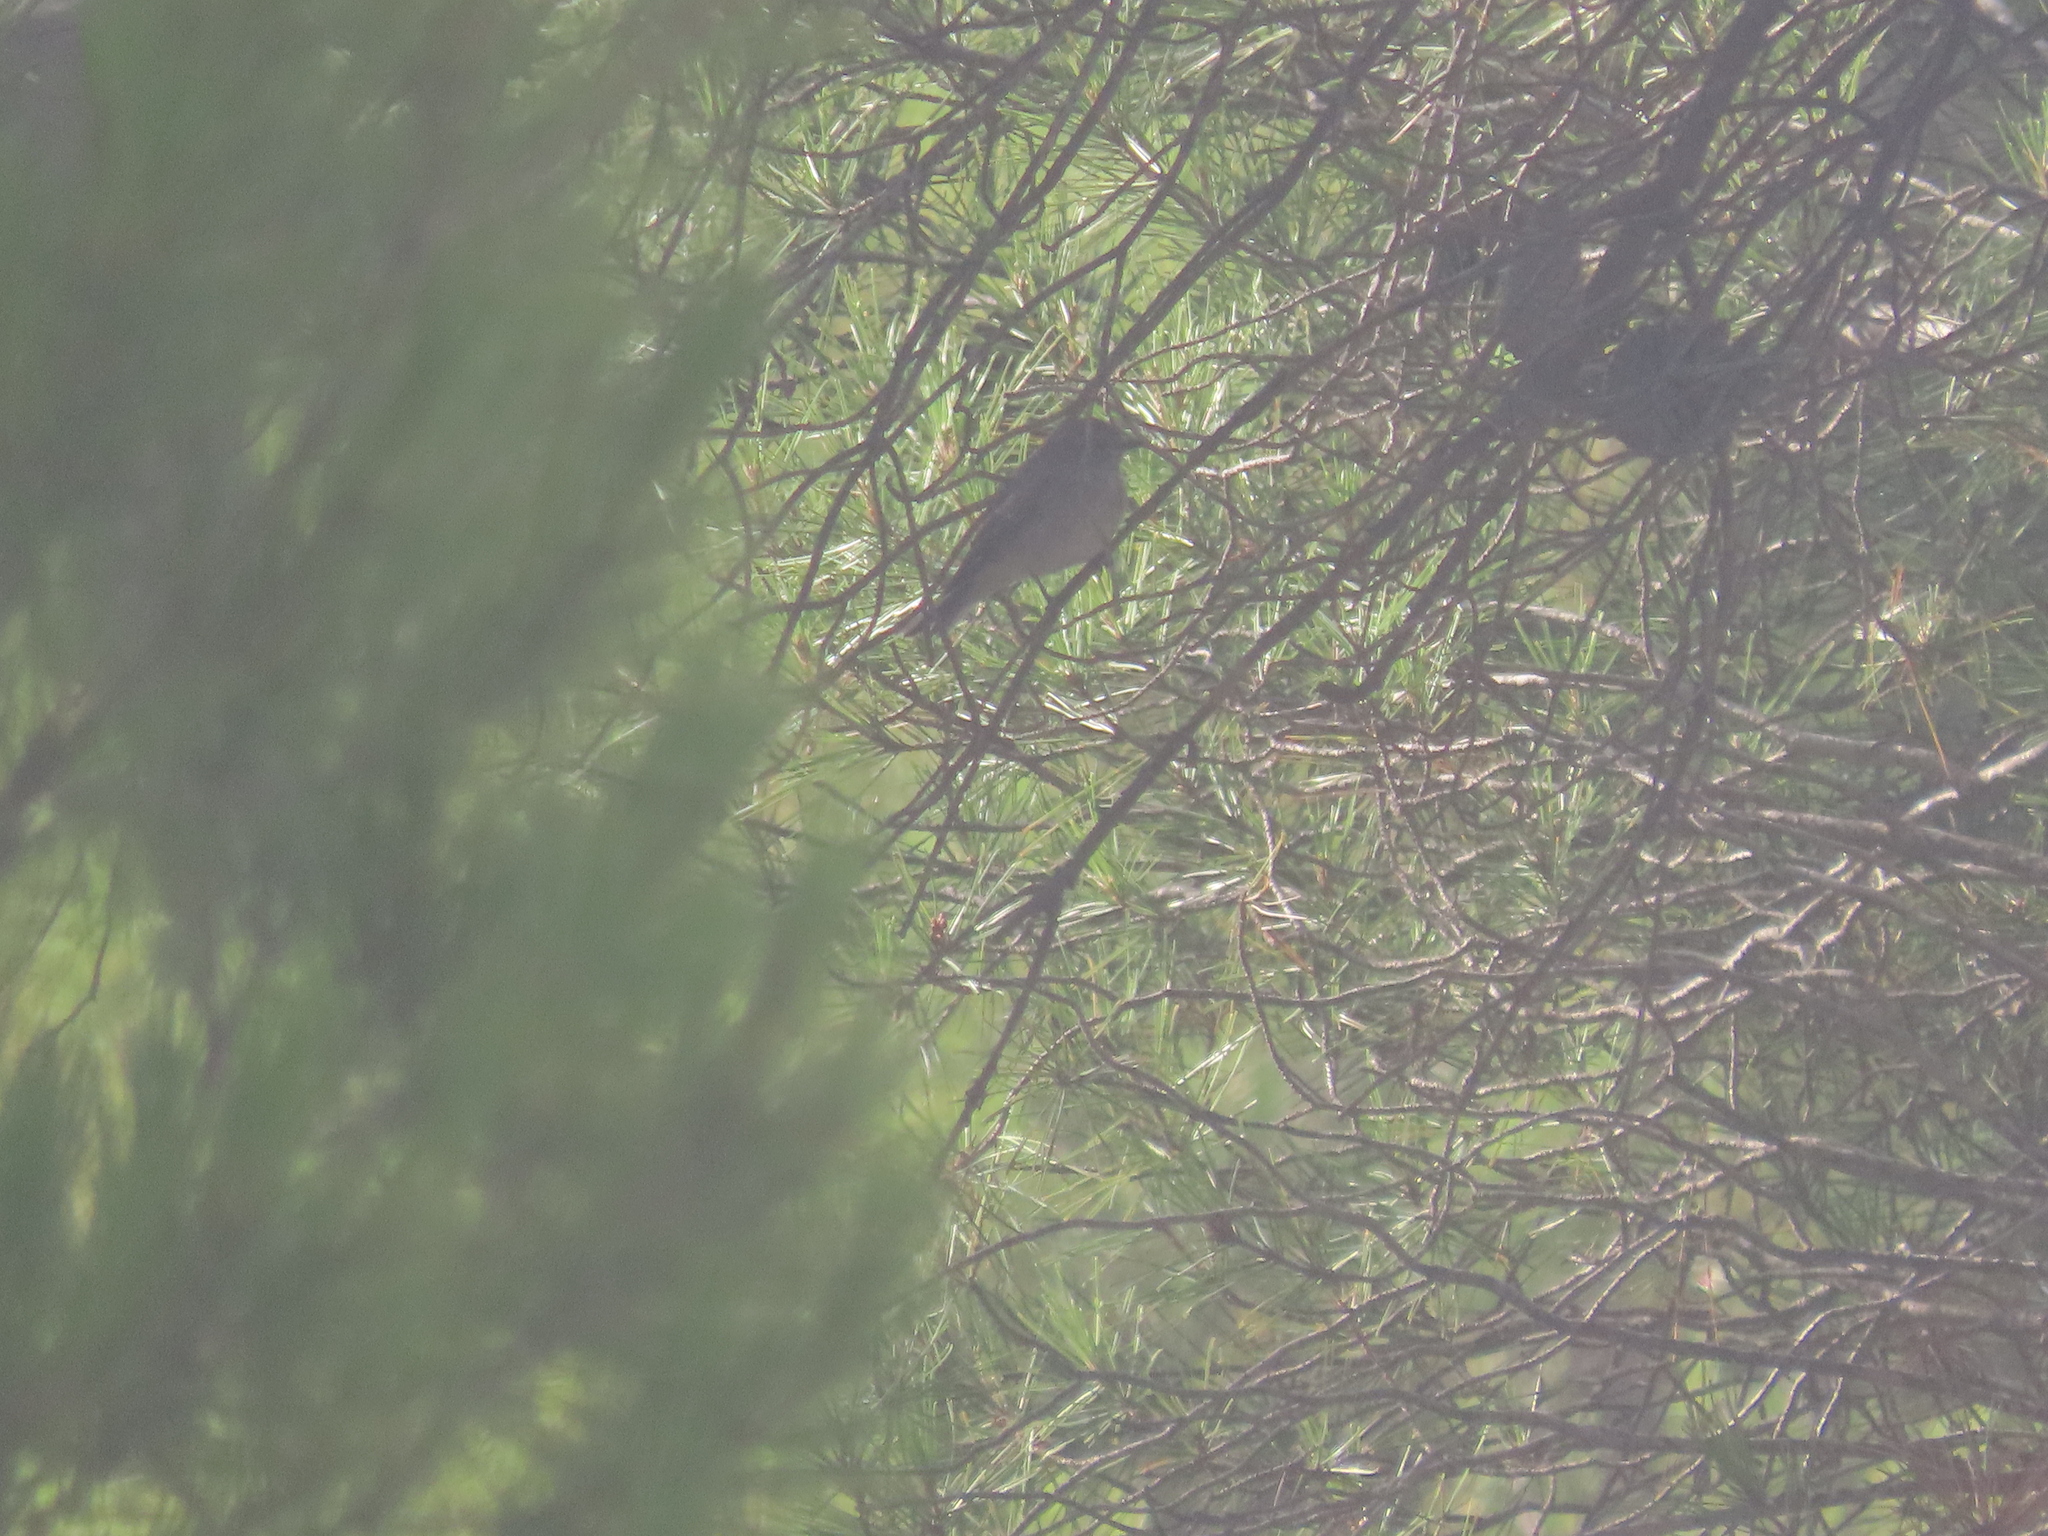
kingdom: Animalia
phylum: Chordata
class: Aves
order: Passeriformes
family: Muscicapidae
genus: Muscicapa
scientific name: Muscicapa striata
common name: Spotted flycatcher
